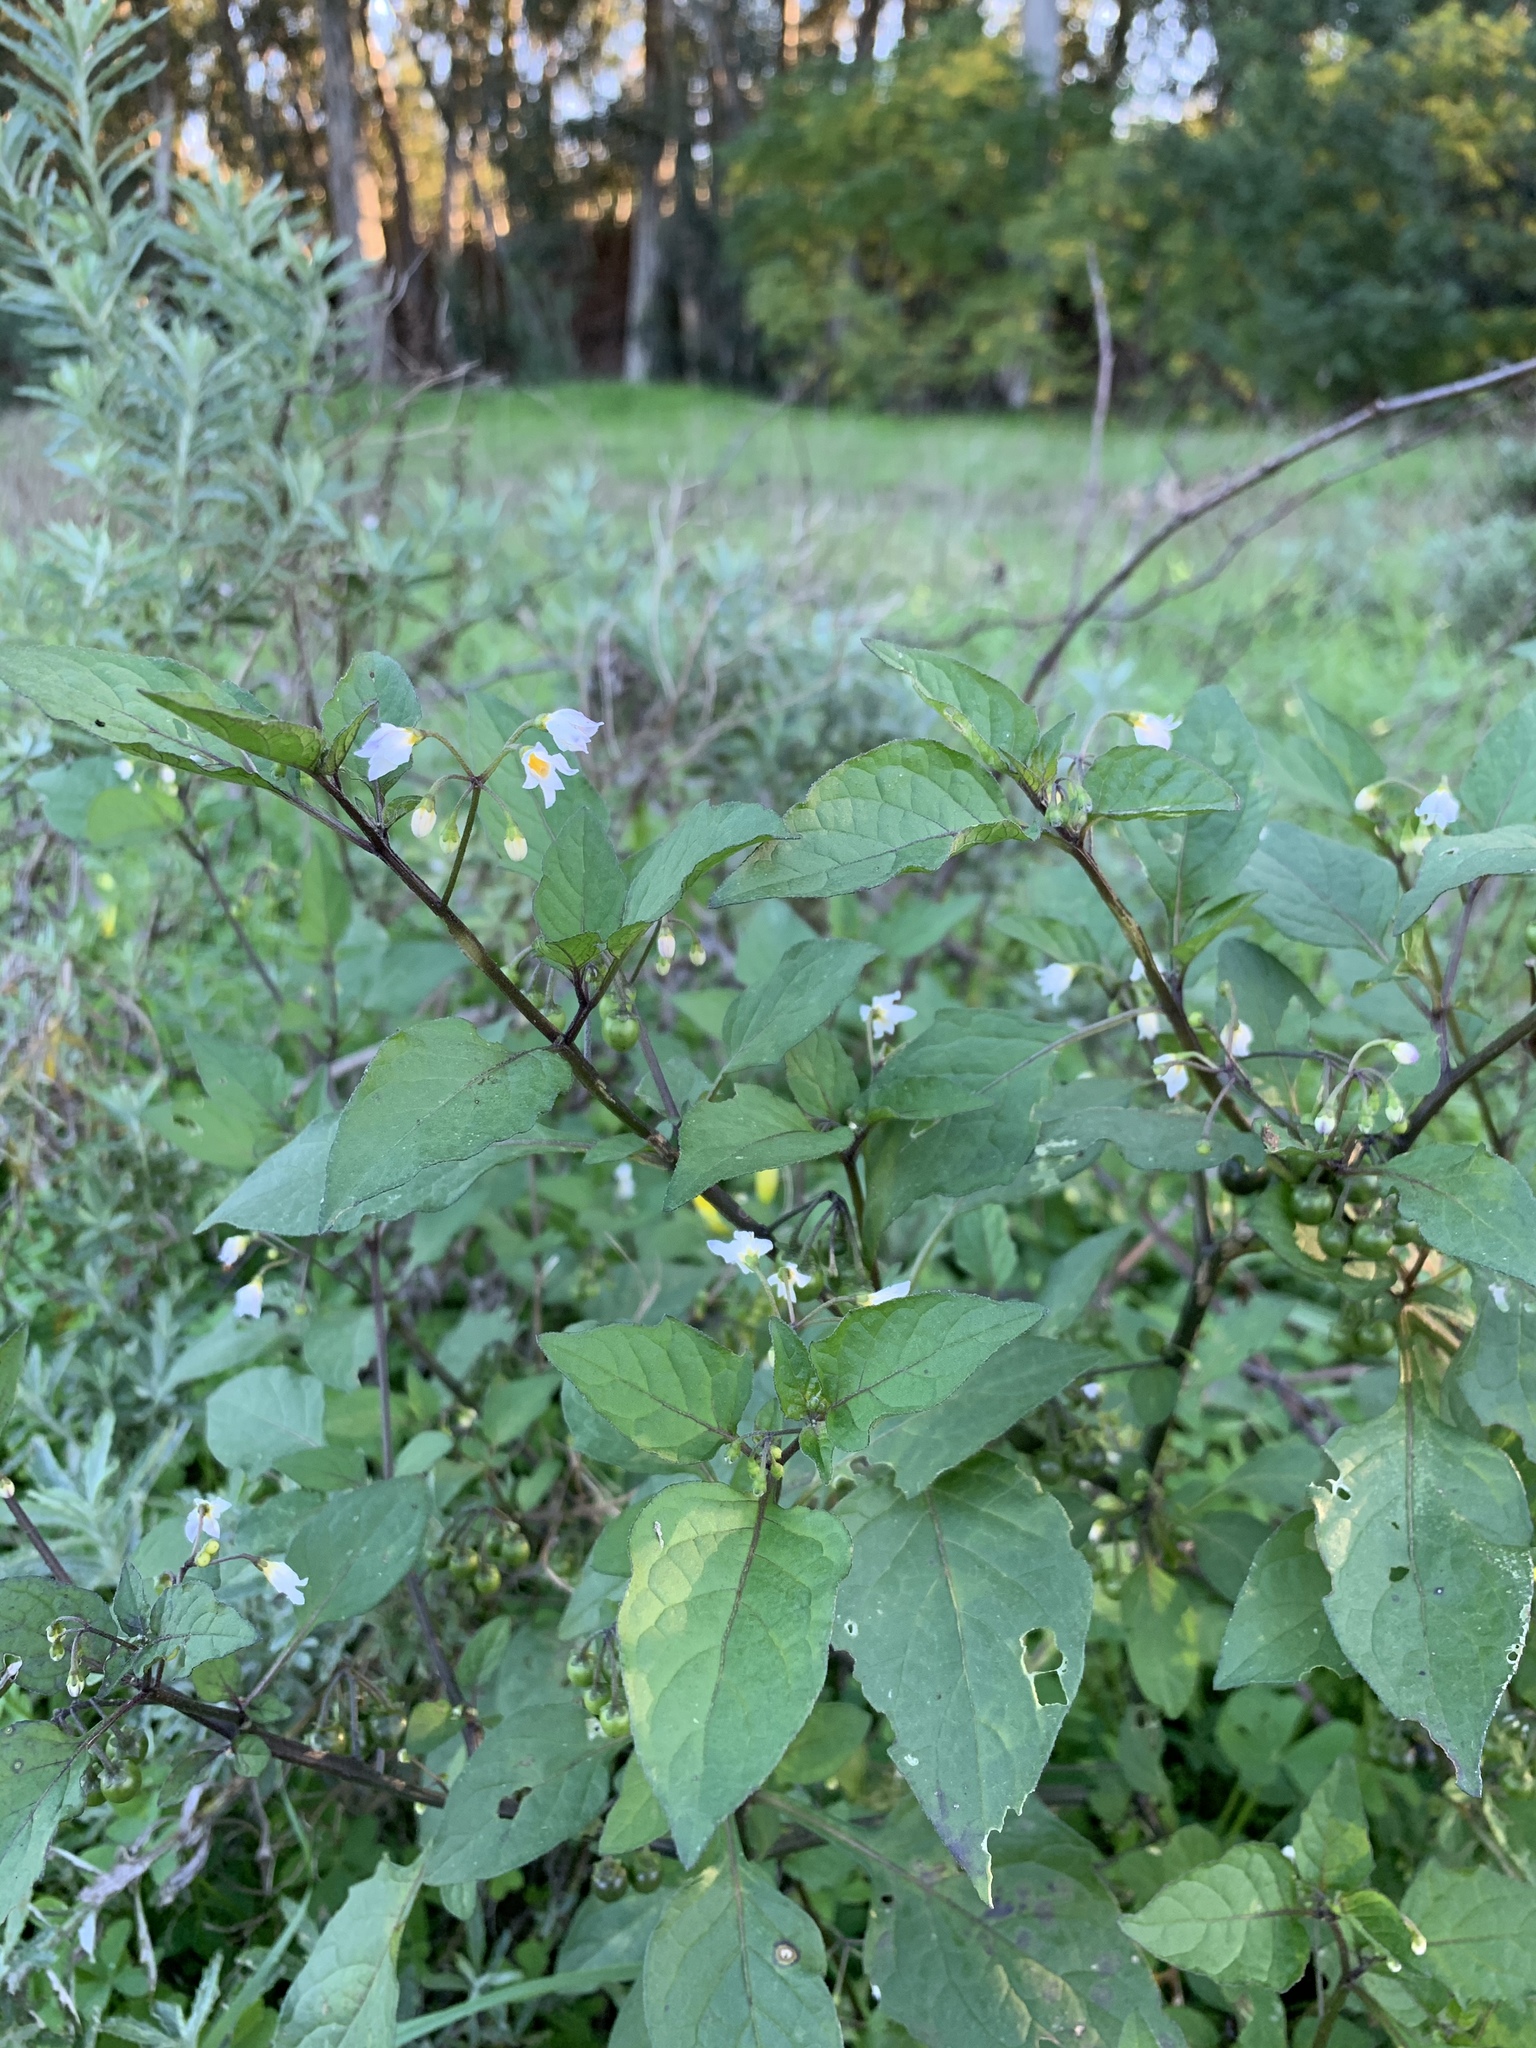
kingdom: Plantae
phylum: Tracheophyta
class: Magnoliopsida
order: Solanales
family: Solanaceae
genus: Solanum
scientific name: Solanum nigrum
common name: Black nightshade
